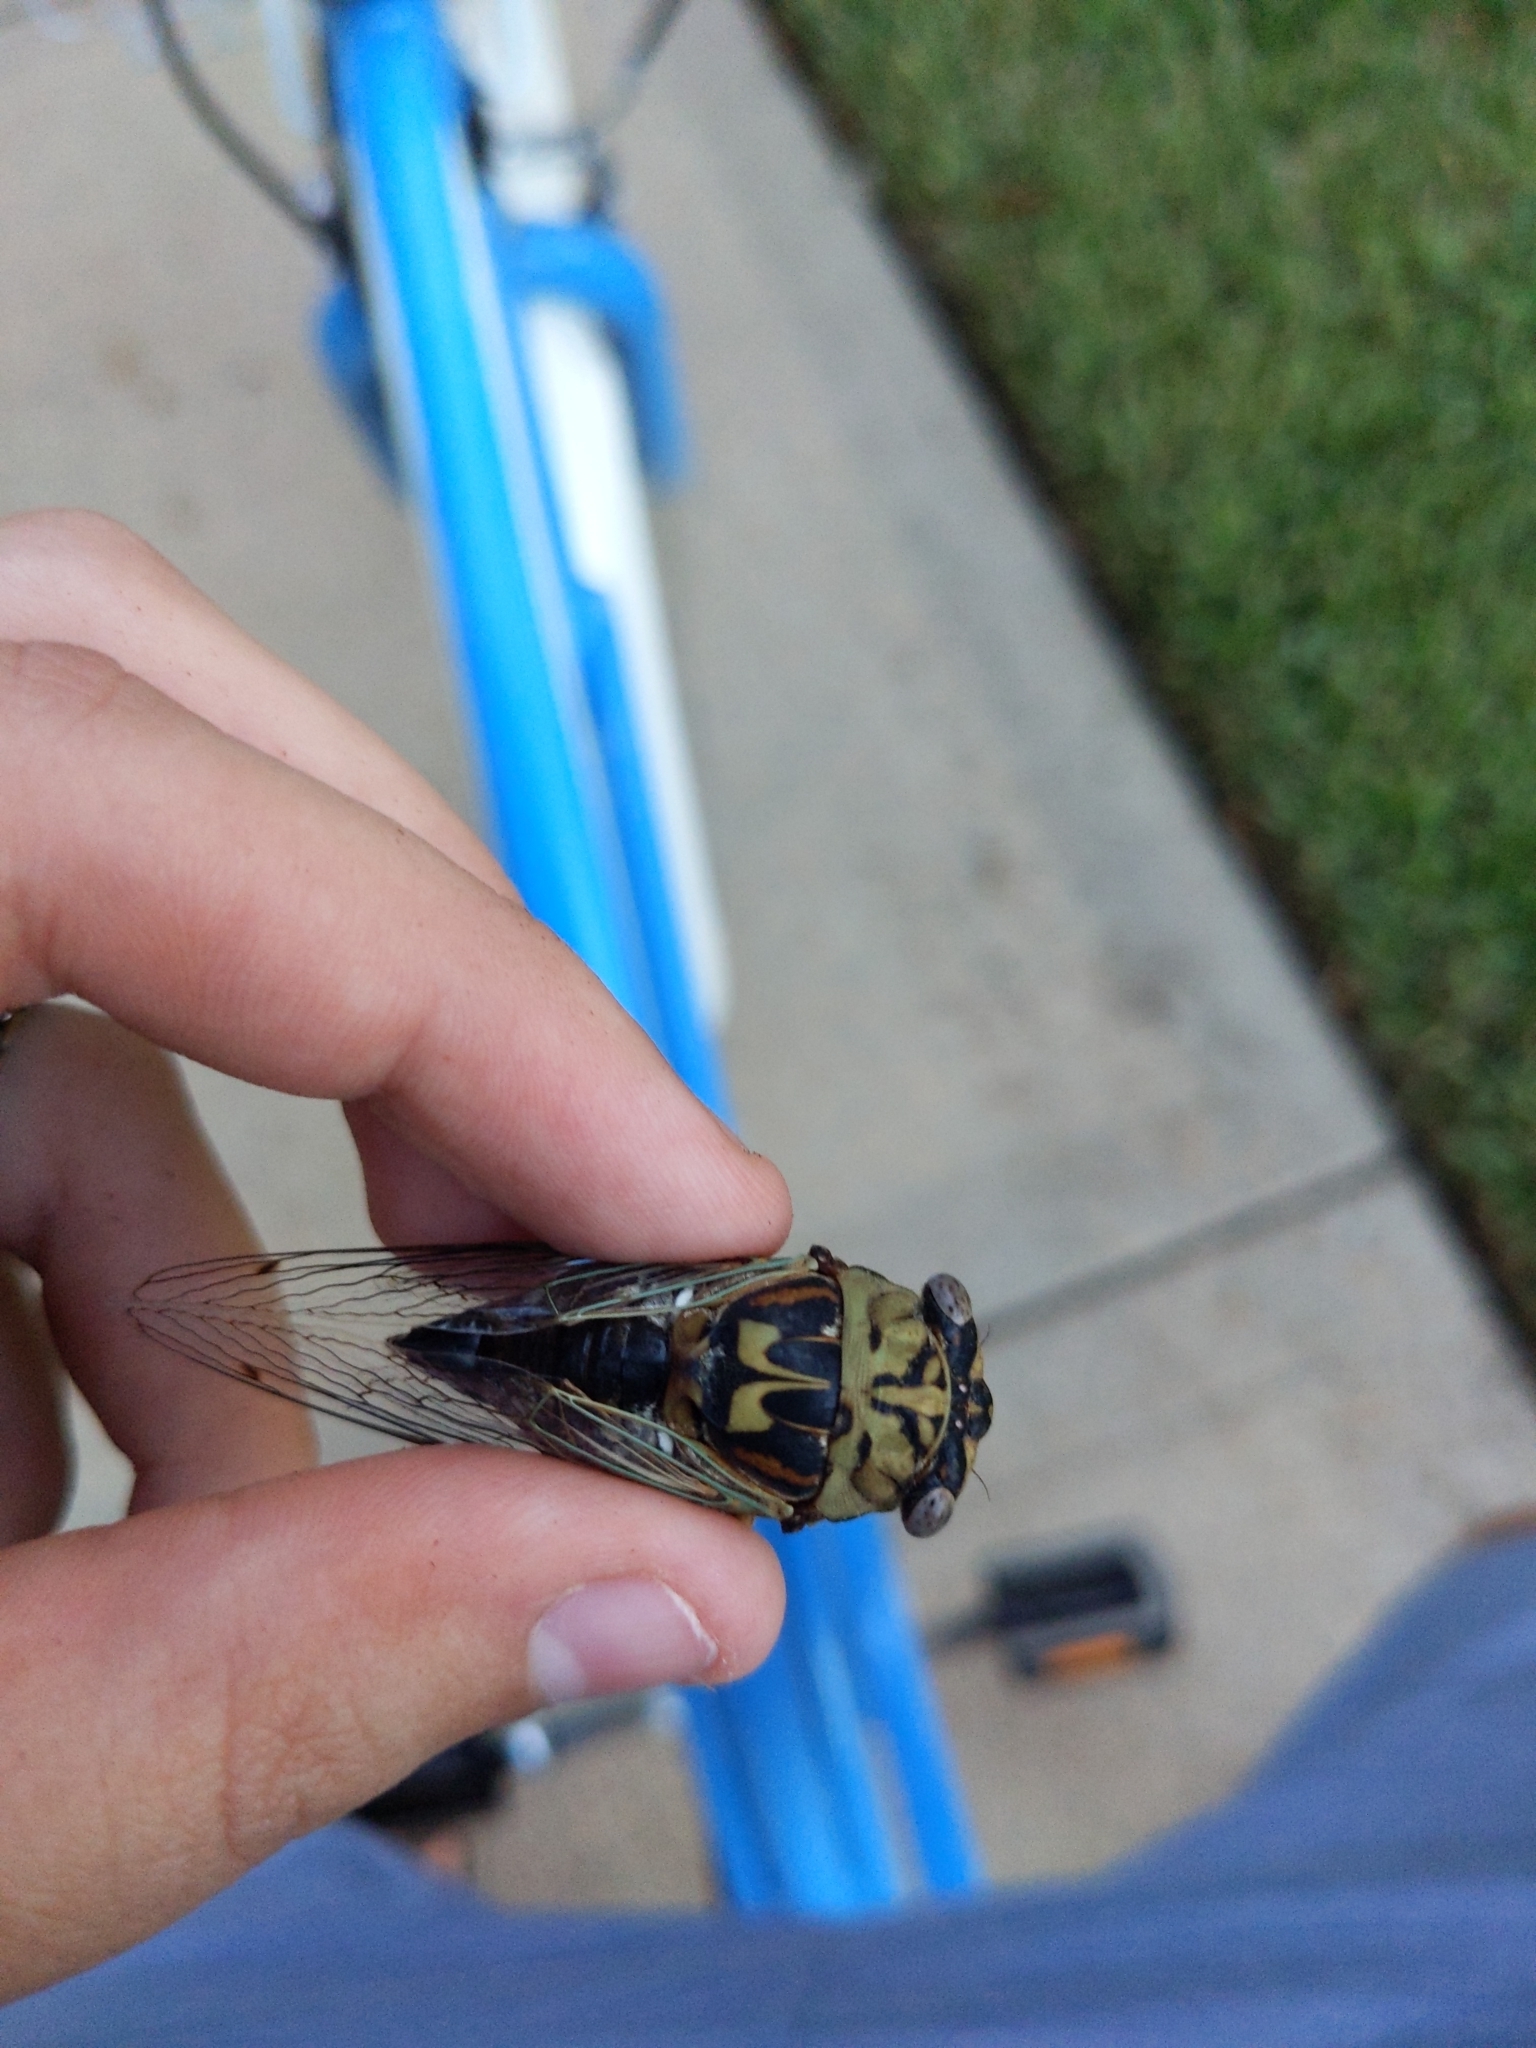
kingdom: Animalia
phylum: Arthropoda
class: Insecta
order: Hemiptera
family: Cicadidae
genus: Megatibicen
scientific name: Megatibicen resh
